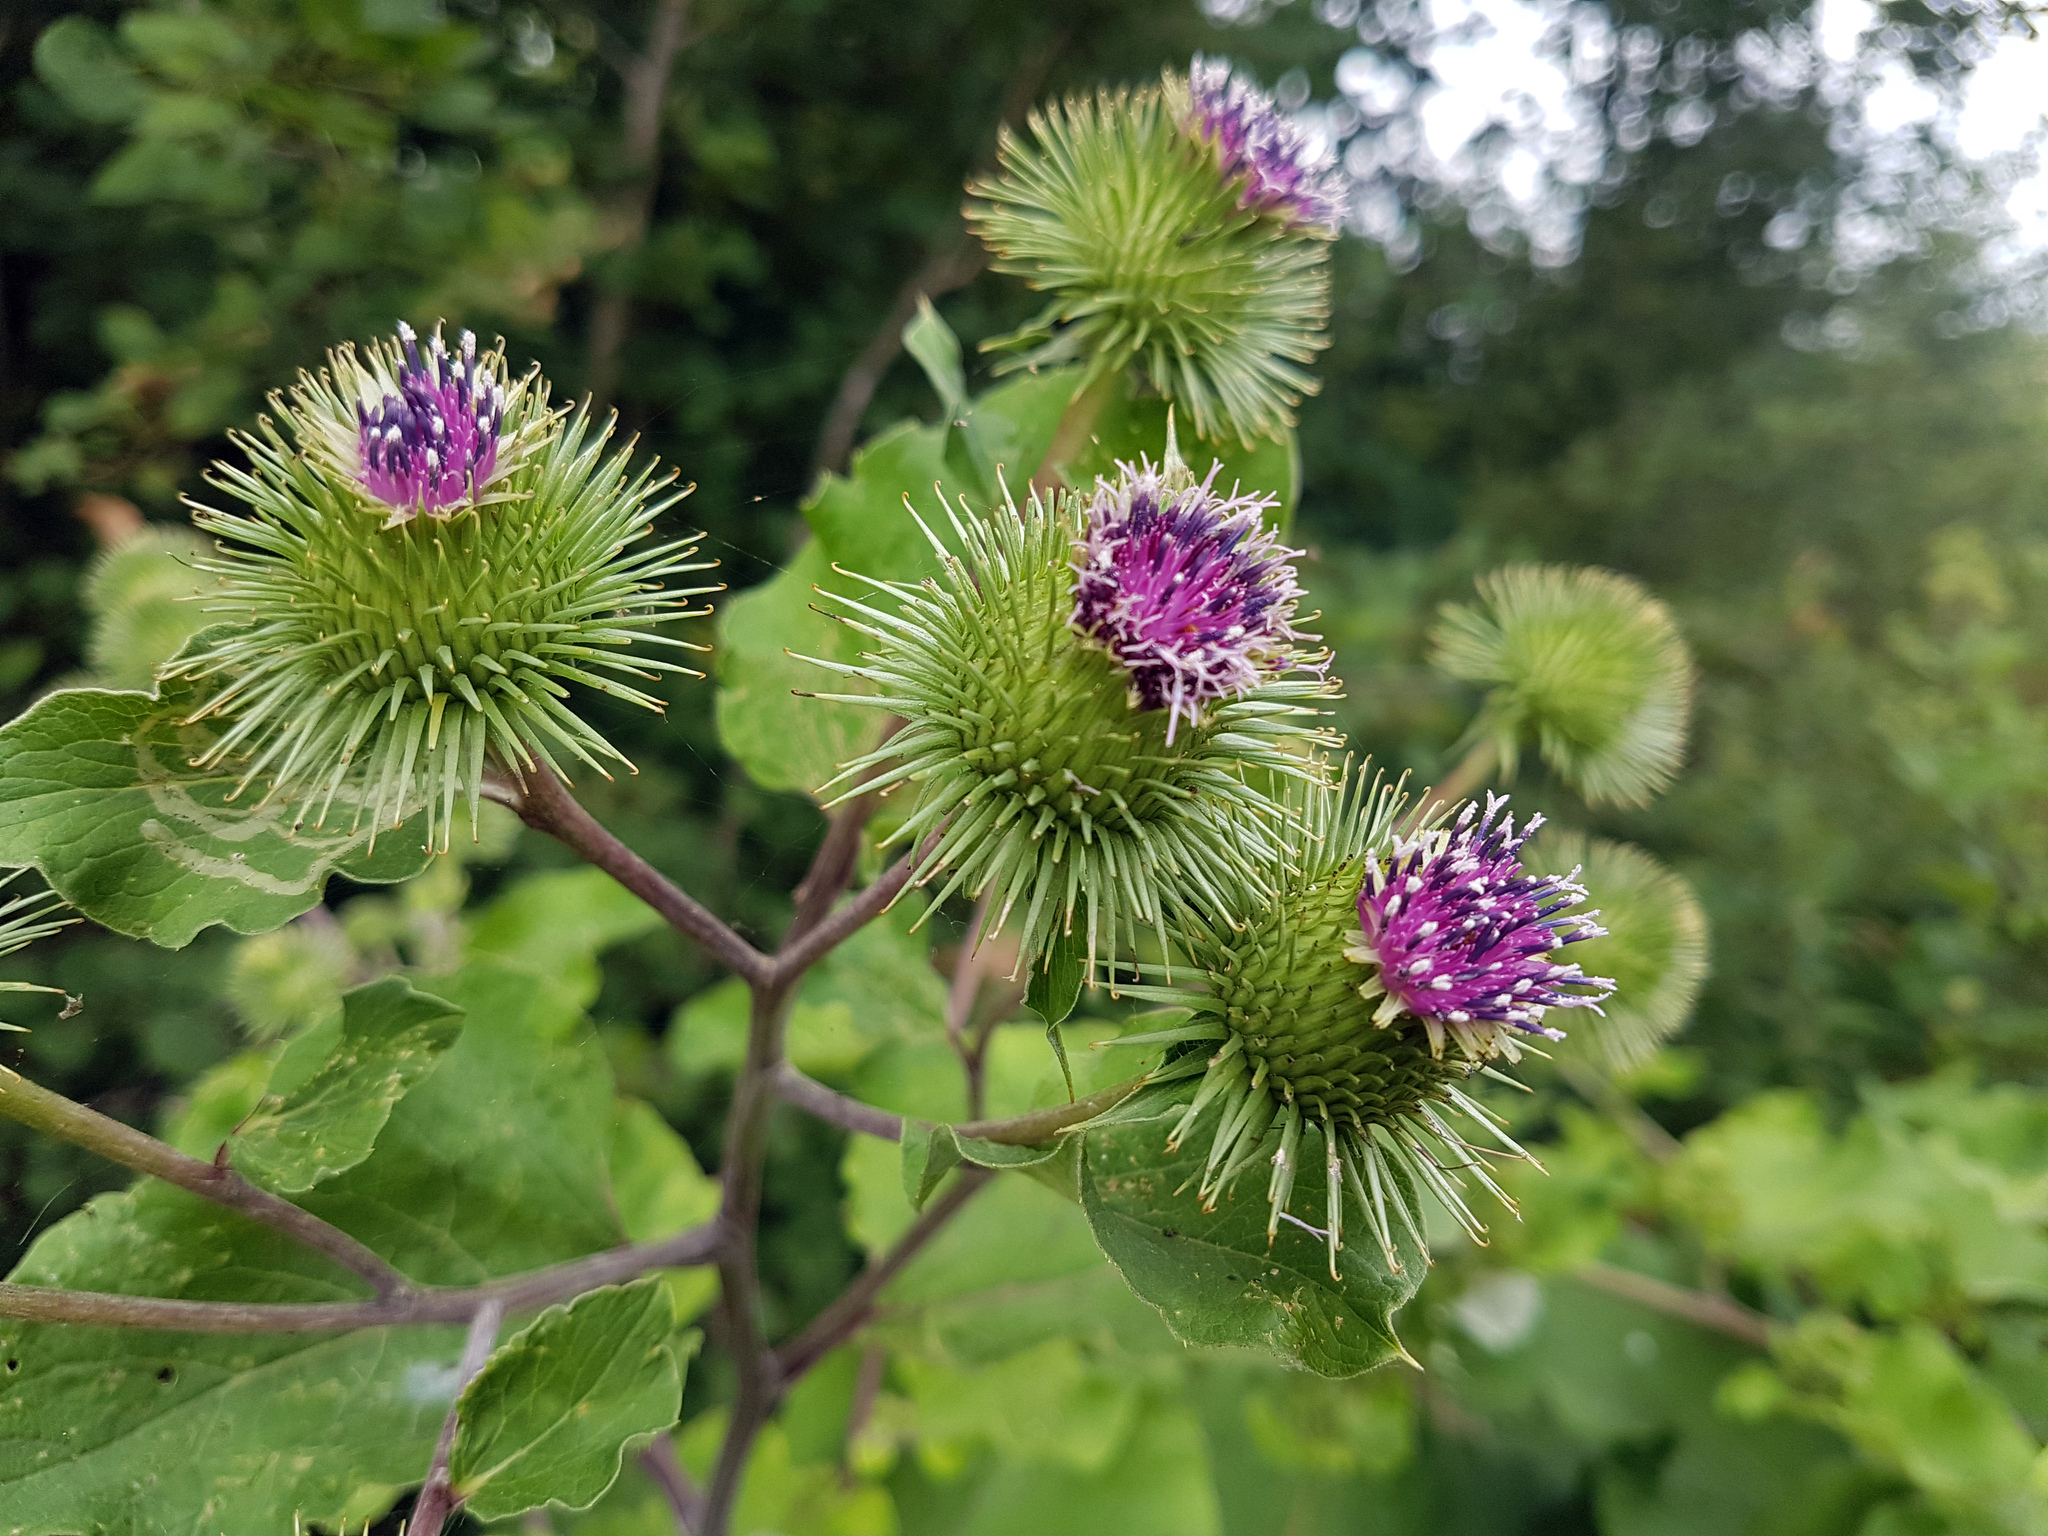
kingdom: Plantae
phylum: Tracheophyta
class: Magnoliopsida
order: Asterales
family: Asteraceae
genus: Arctium
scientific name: Arctium lappa
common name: Greater burdock
